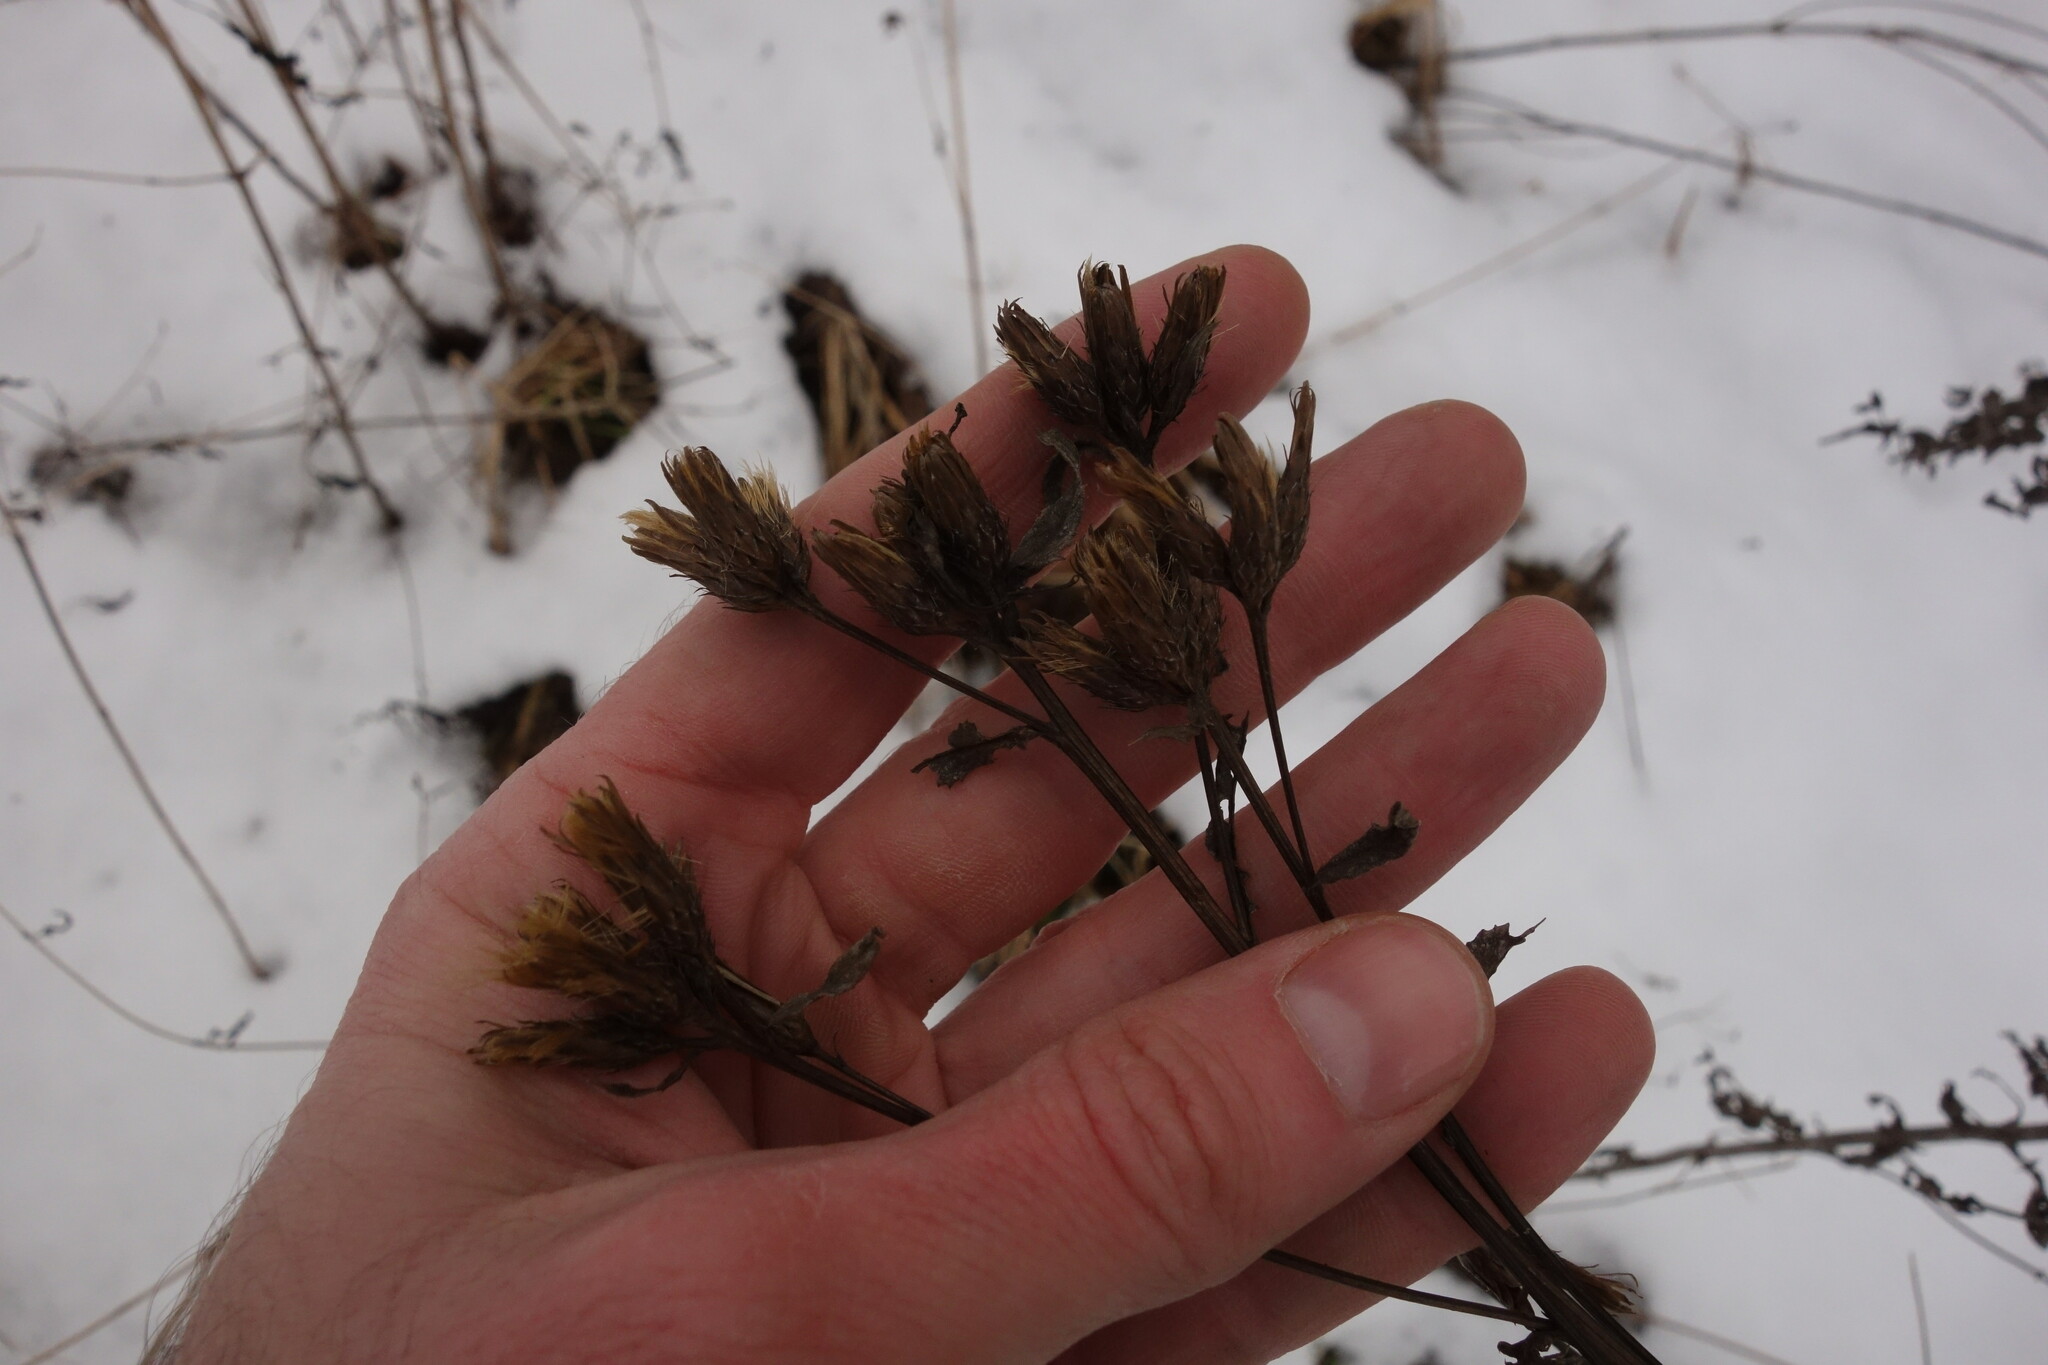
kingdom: Plantae
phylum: Tracheophyta
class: Magnoliopsida
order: Asterales
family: Asteraceae
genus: Serratula
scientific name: Serratula tinctoria
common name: Saw-wort
